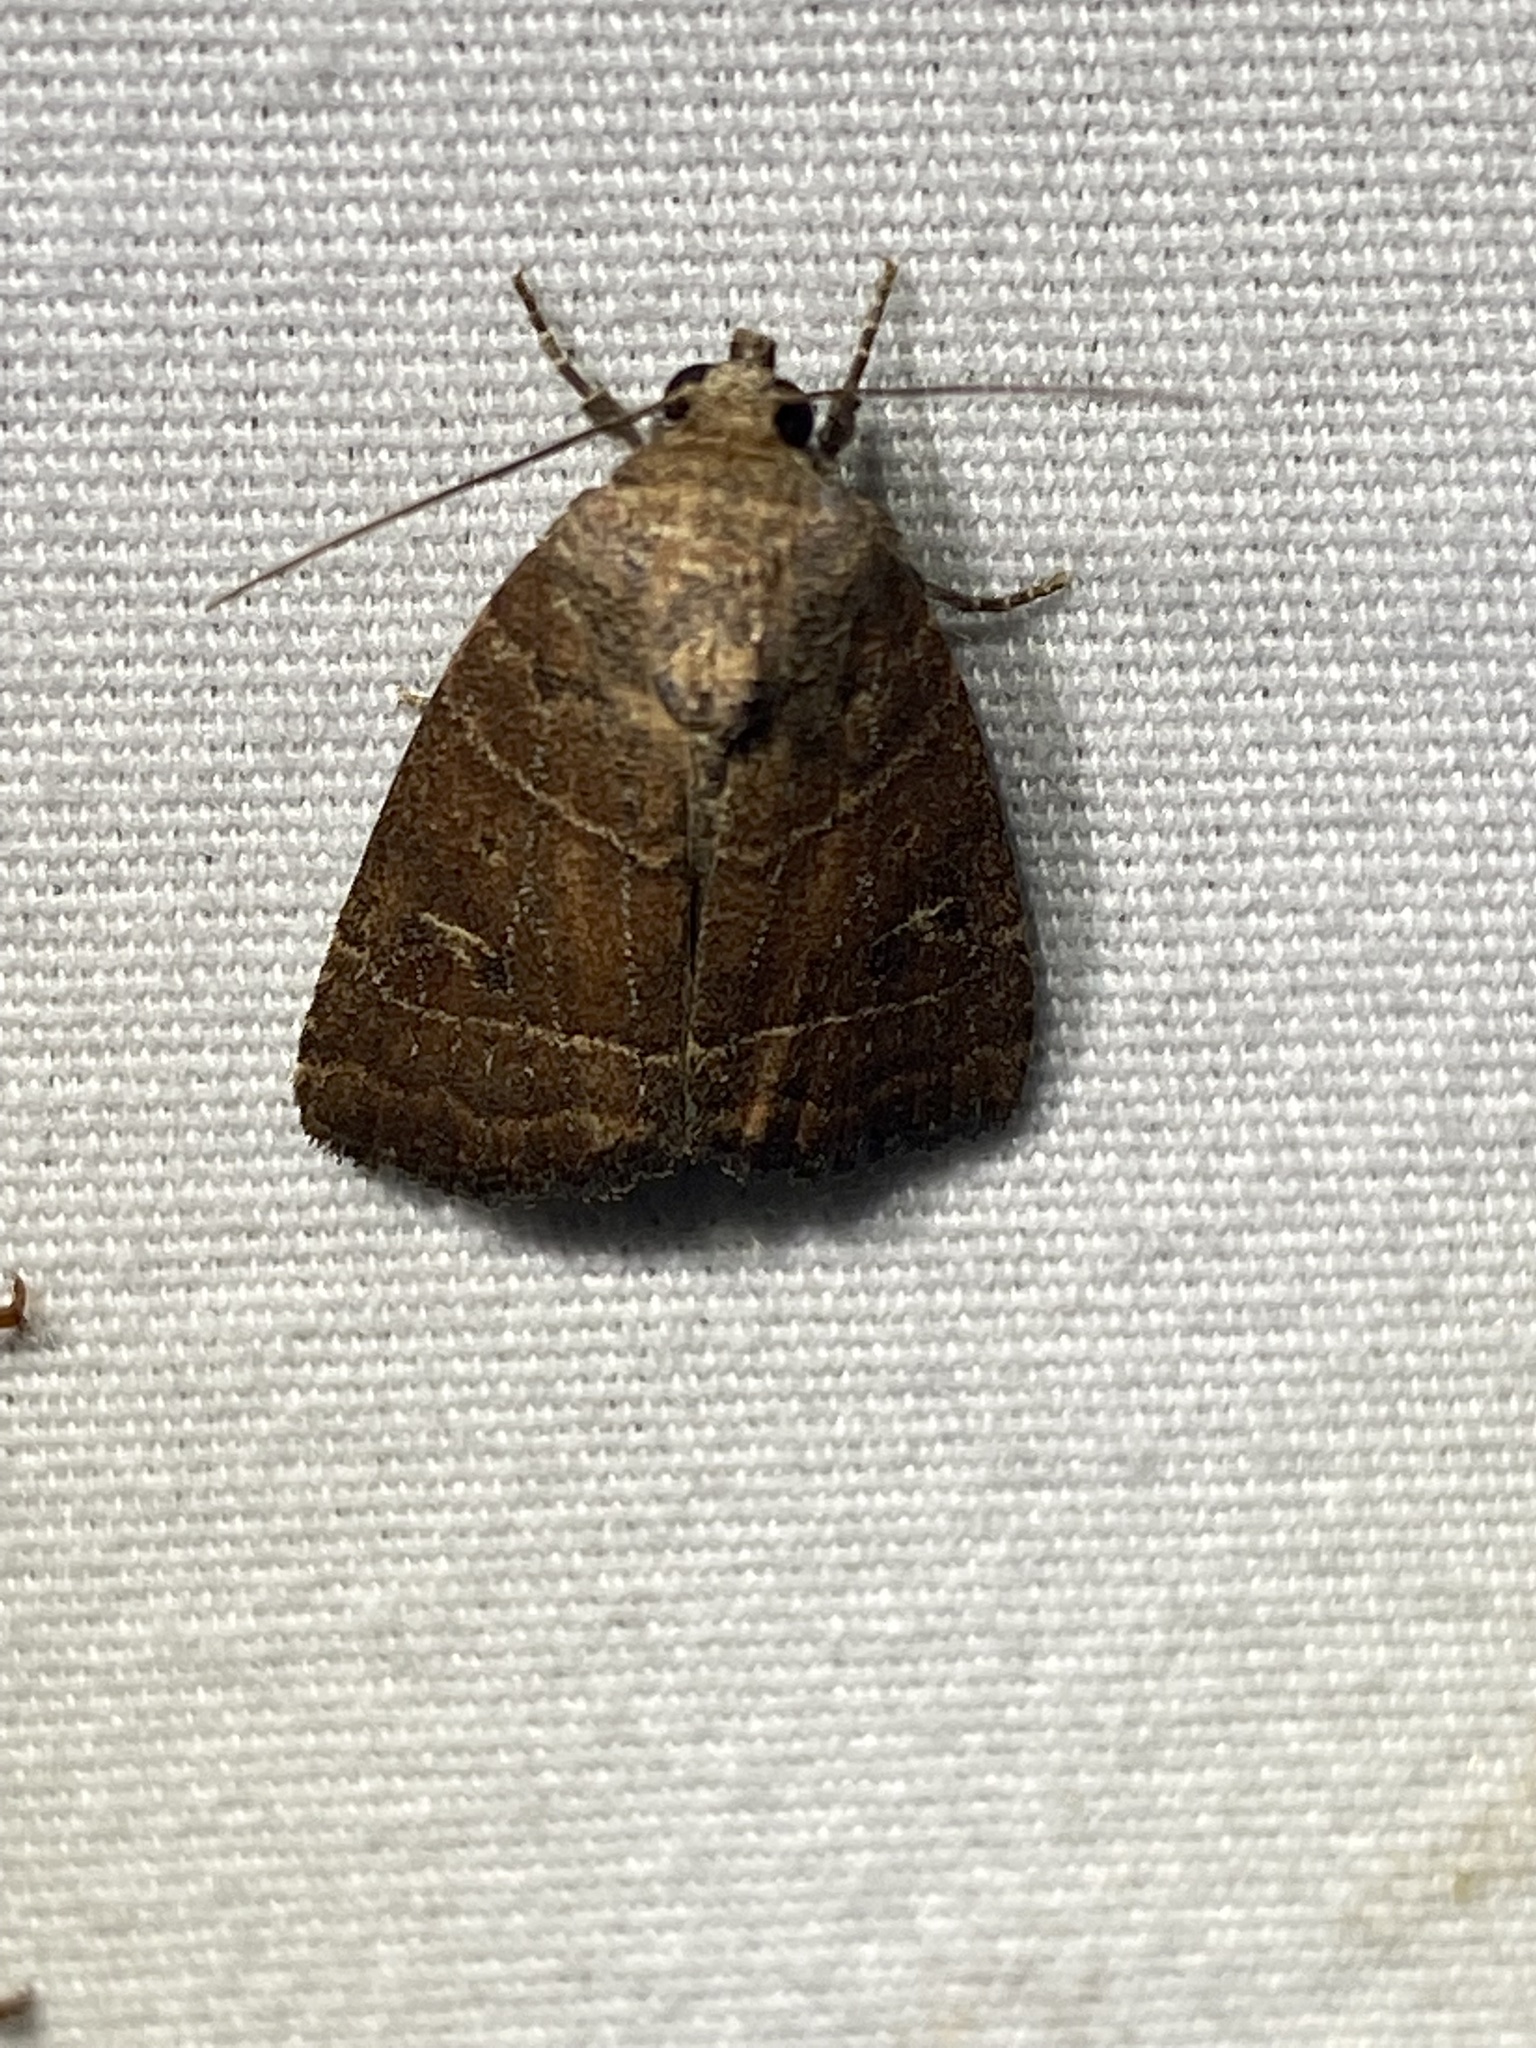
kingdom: Animalia
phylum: Arthropoda
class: Insecta
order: Lepidoptera
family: Noctuidae
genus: Elaphria
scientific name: Elaphria grata
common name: Grateful midget moth
